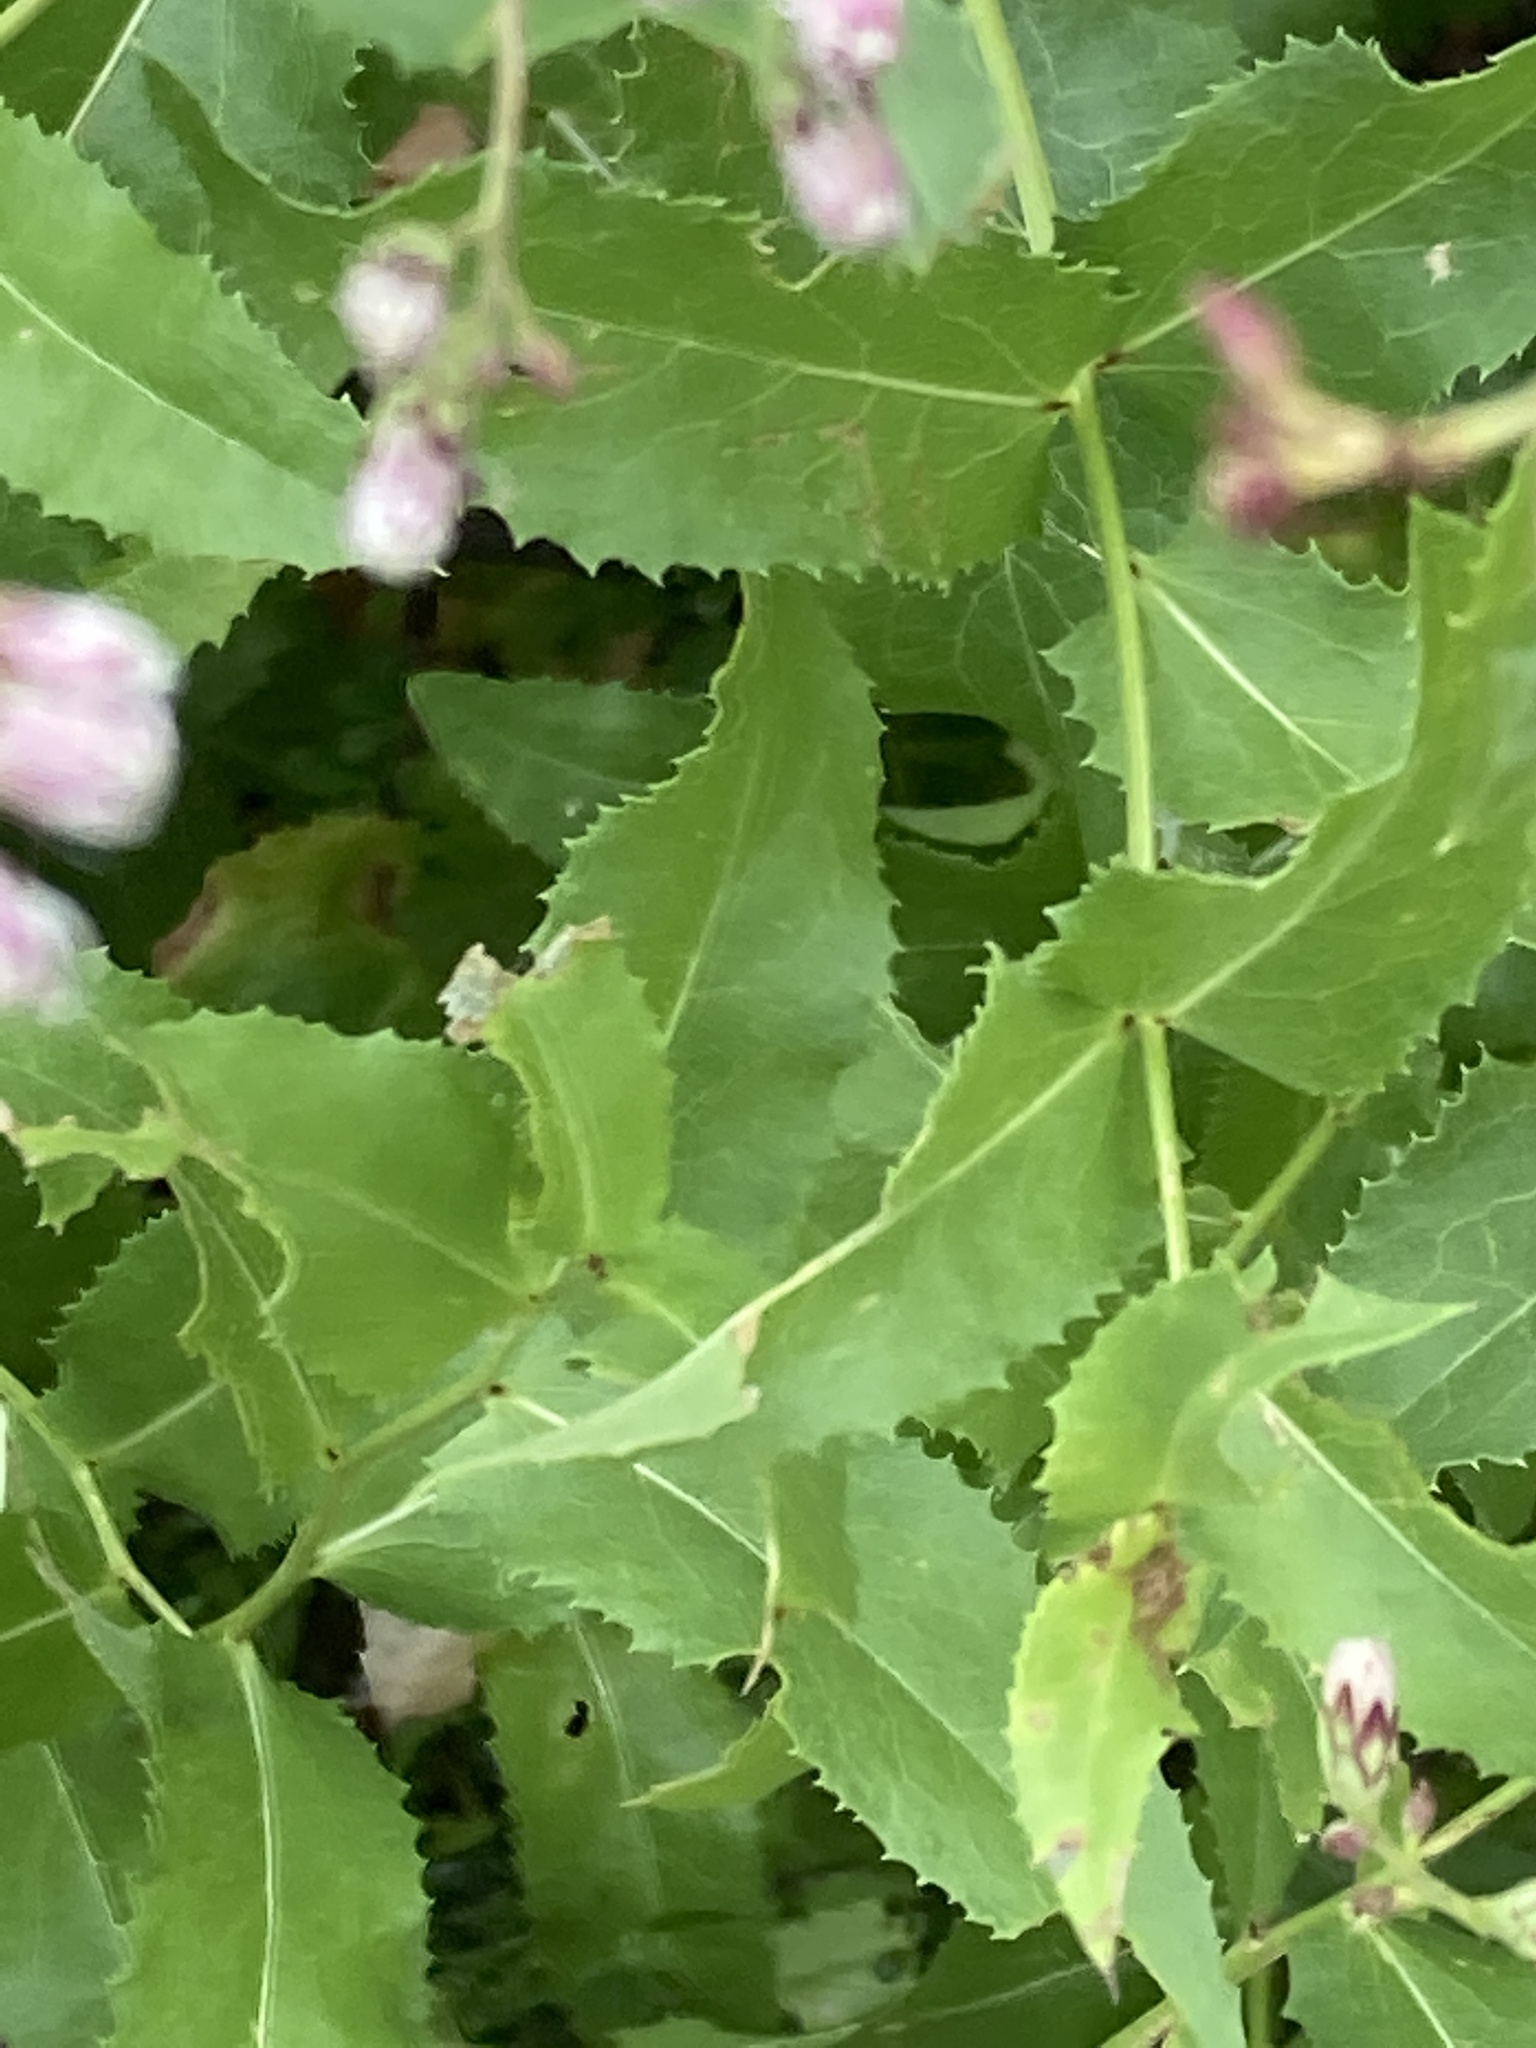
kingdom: Plantae
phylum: Tracheophyta
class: Magnoliopsida
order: Asterales
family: Asteraceae
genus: Acourtia
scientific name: Acourtia wrightii
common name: Brownfoot
